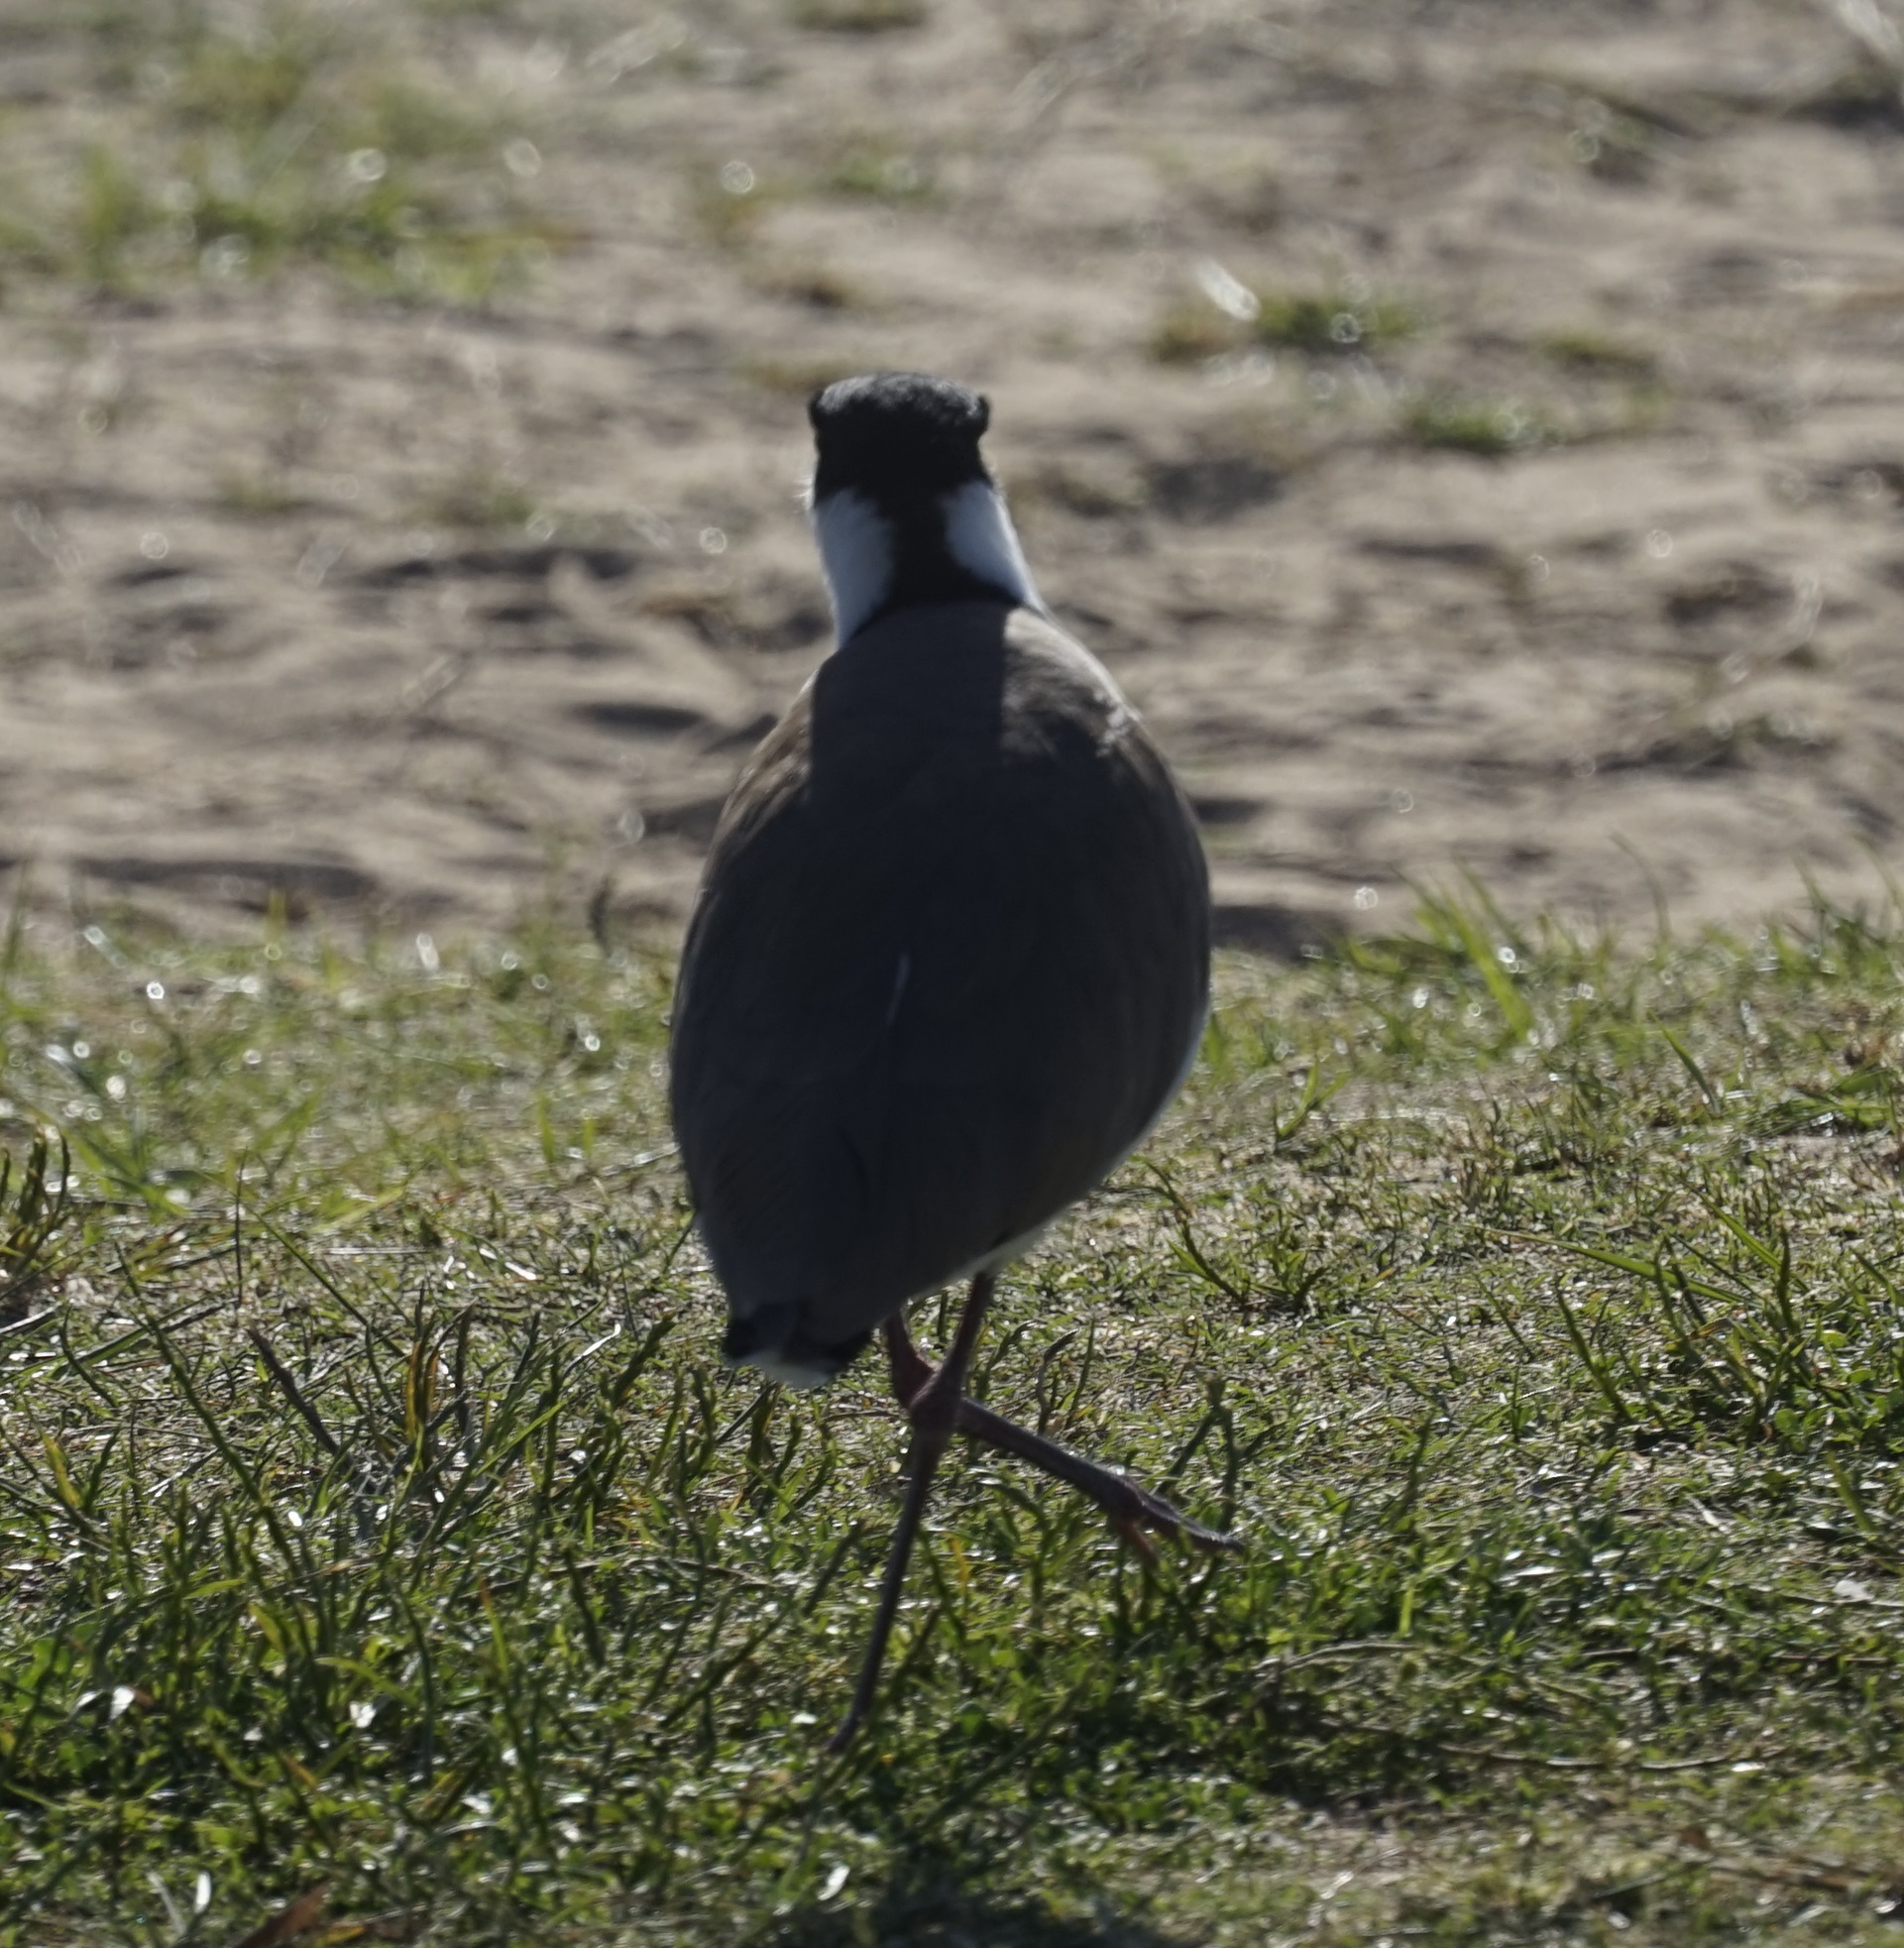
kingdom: Animalia
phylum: Chordata
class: Aves
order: Charadriiformes
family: Charadriidae
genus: Vanellus
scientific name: Vanellus miles
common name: Masked lapwing
